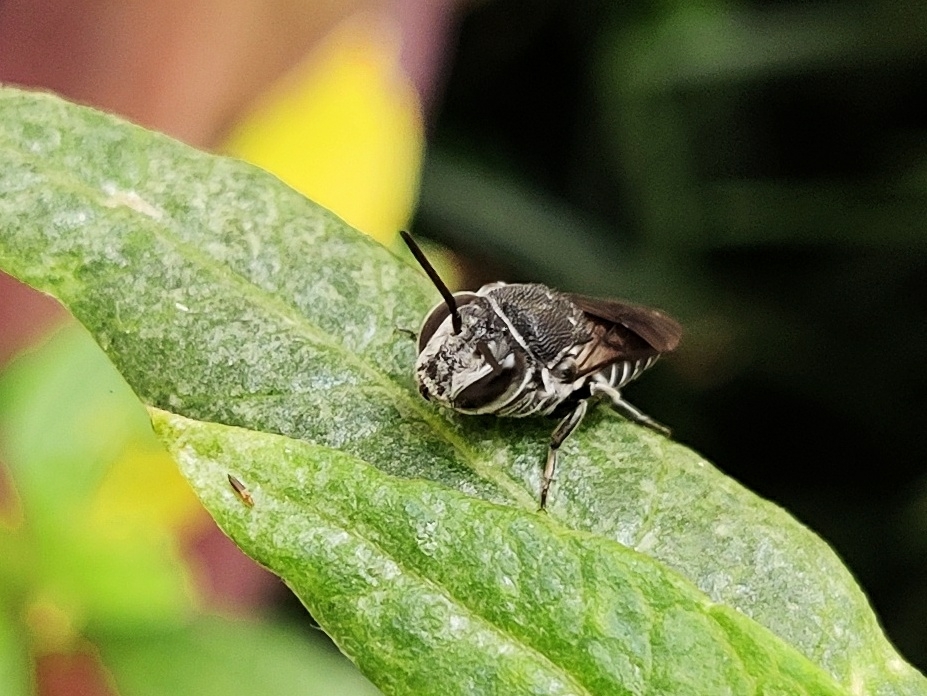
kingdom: Animalia
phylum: Arthropoda
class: Insecta
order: Hymenoptera
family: Megachilidae
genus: Coelioxys
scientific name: Coelioxys
